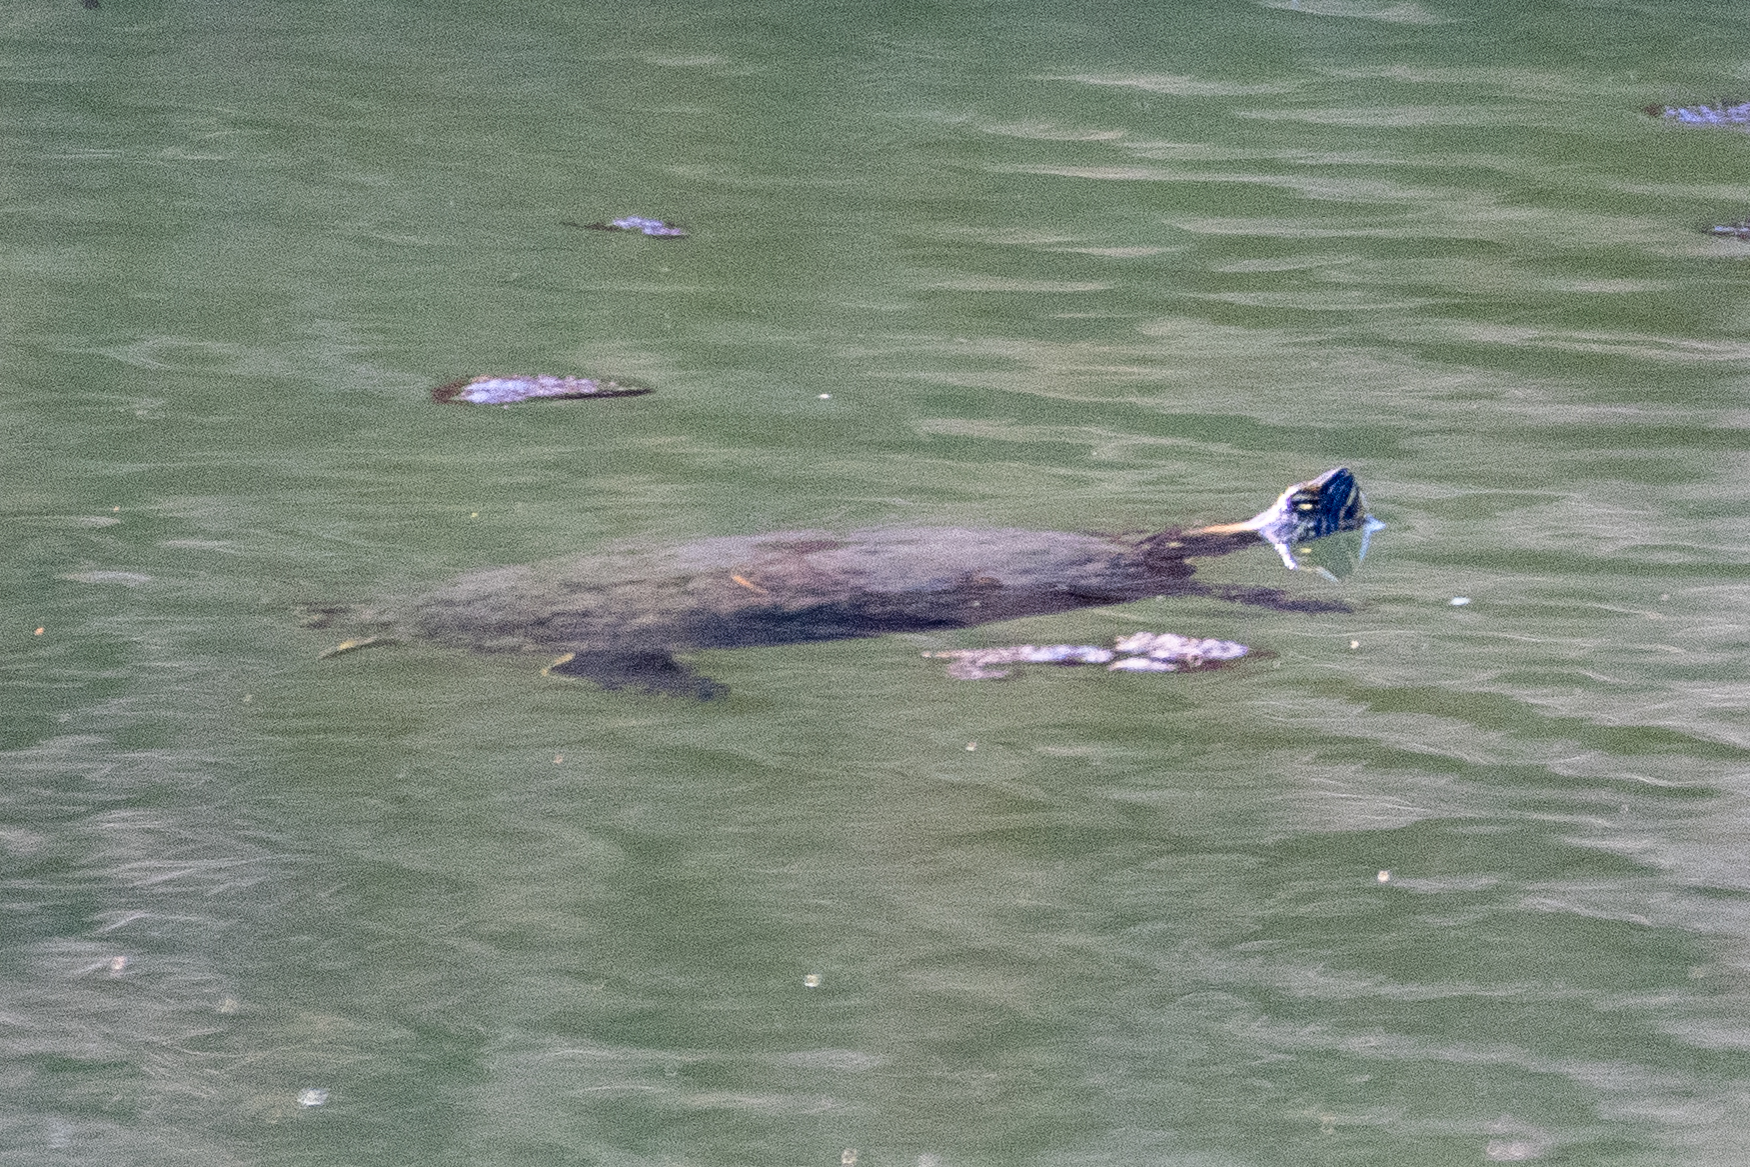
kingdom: Animalia
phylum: Chordata
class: Testudines
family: Emydidae
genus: Trachemys
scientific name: Trachemys scripta
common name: Slider
